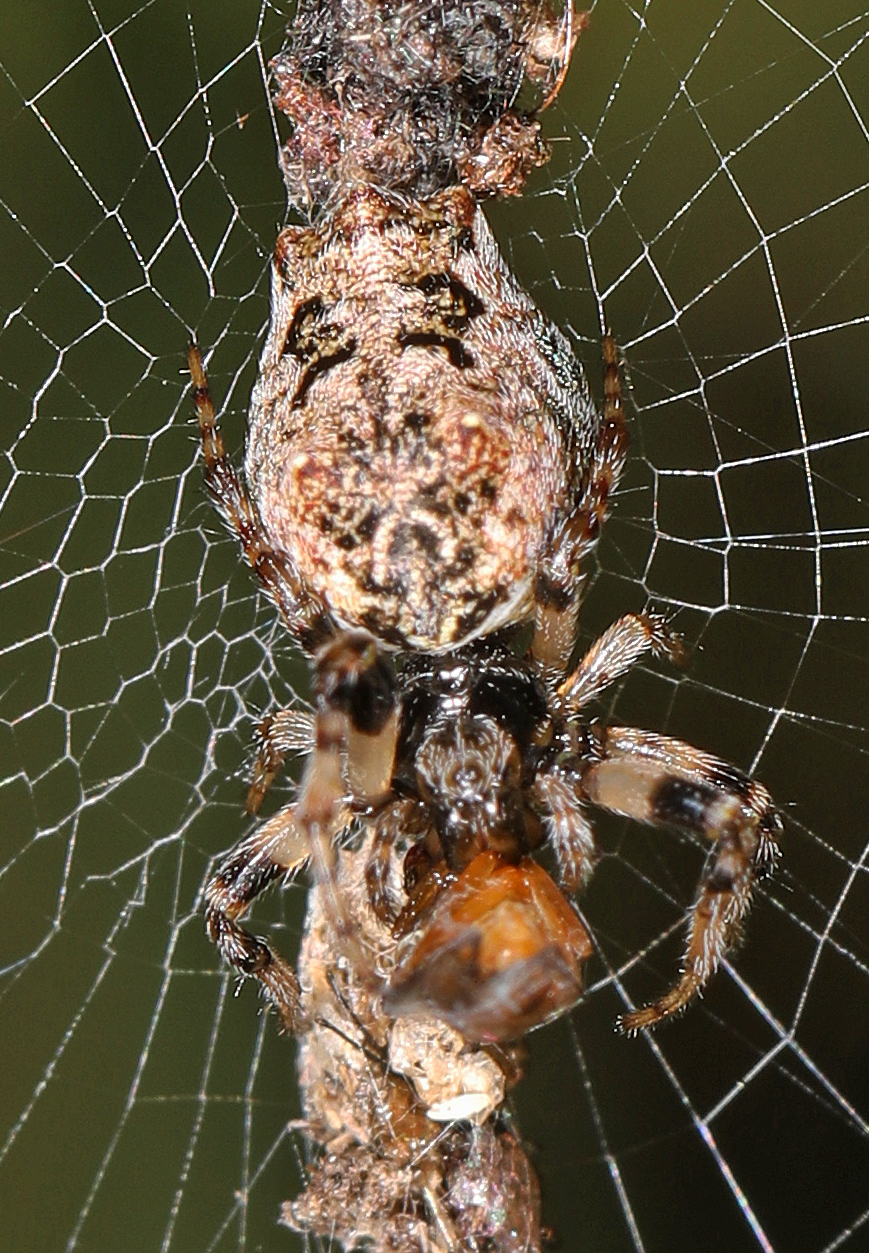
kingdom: Animalia
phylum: Arthropoda
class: Arachnida
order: Araneae
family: Araneidae
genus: Cyclosa
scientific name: Cyclosa walckenaeri
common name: Orb weavers
